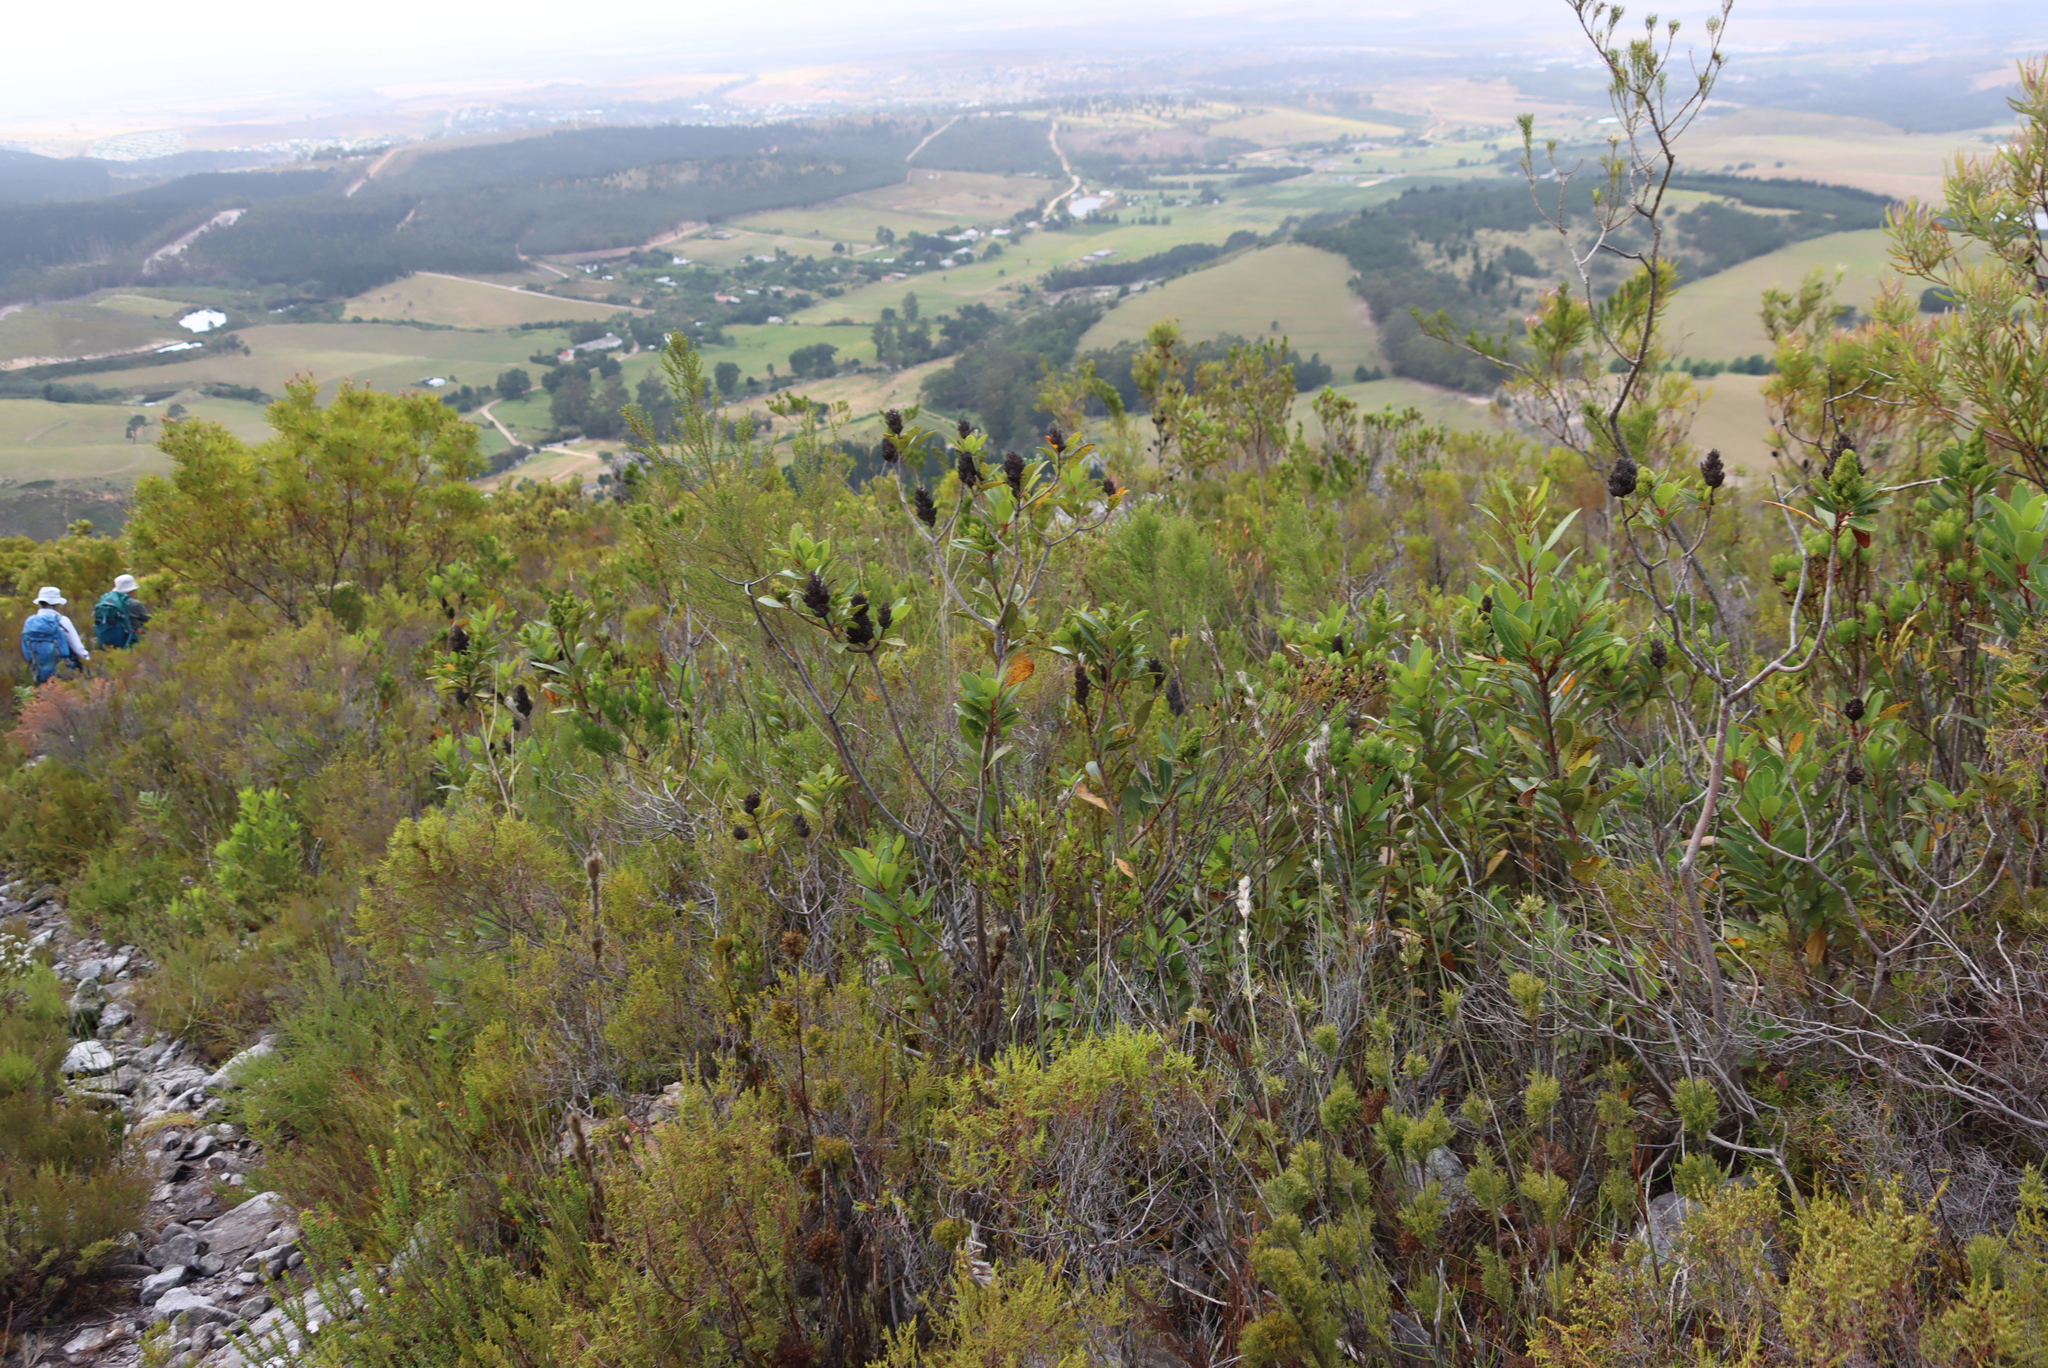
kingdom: Plantae
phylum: Tracheophyta
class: Magnoliopsida
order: Sapindales
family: Anacardiaceae
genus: Laurophyllus
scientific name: Laurophyllus capensis
